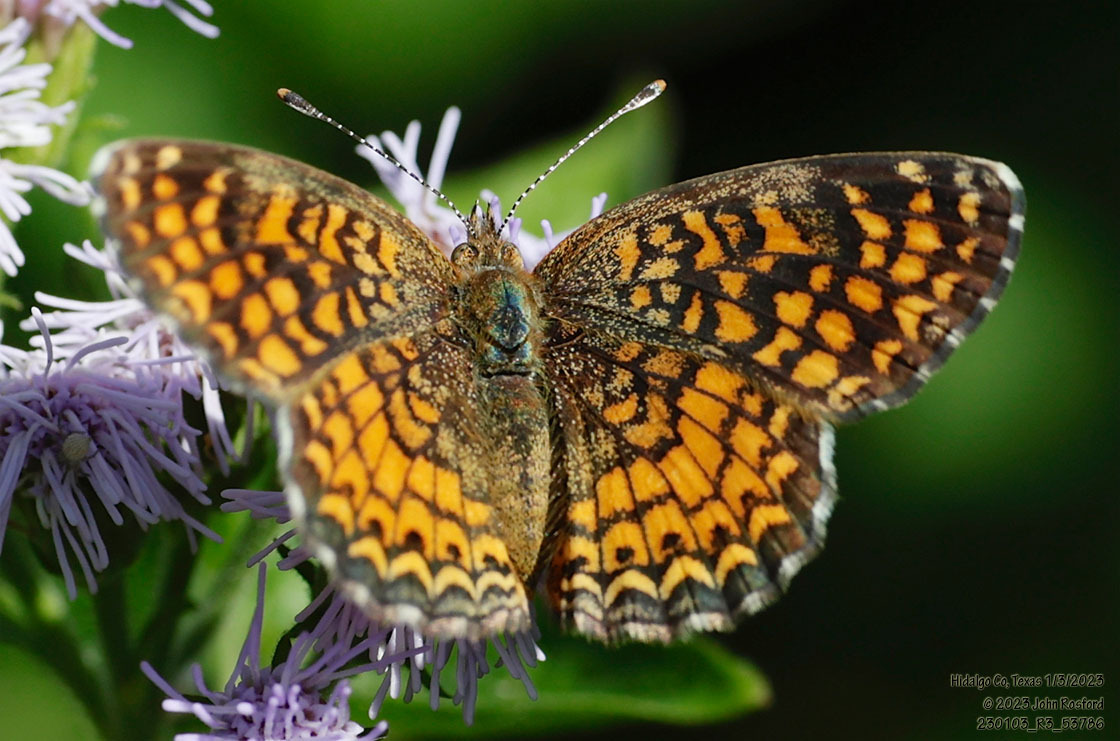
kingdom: Animalia
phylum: Arthropoda
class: Insecta
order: Lepidoptera
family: Nymphalidae
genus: Phyciodes
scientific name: Phyciodes vesta
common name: Vesta crescent
